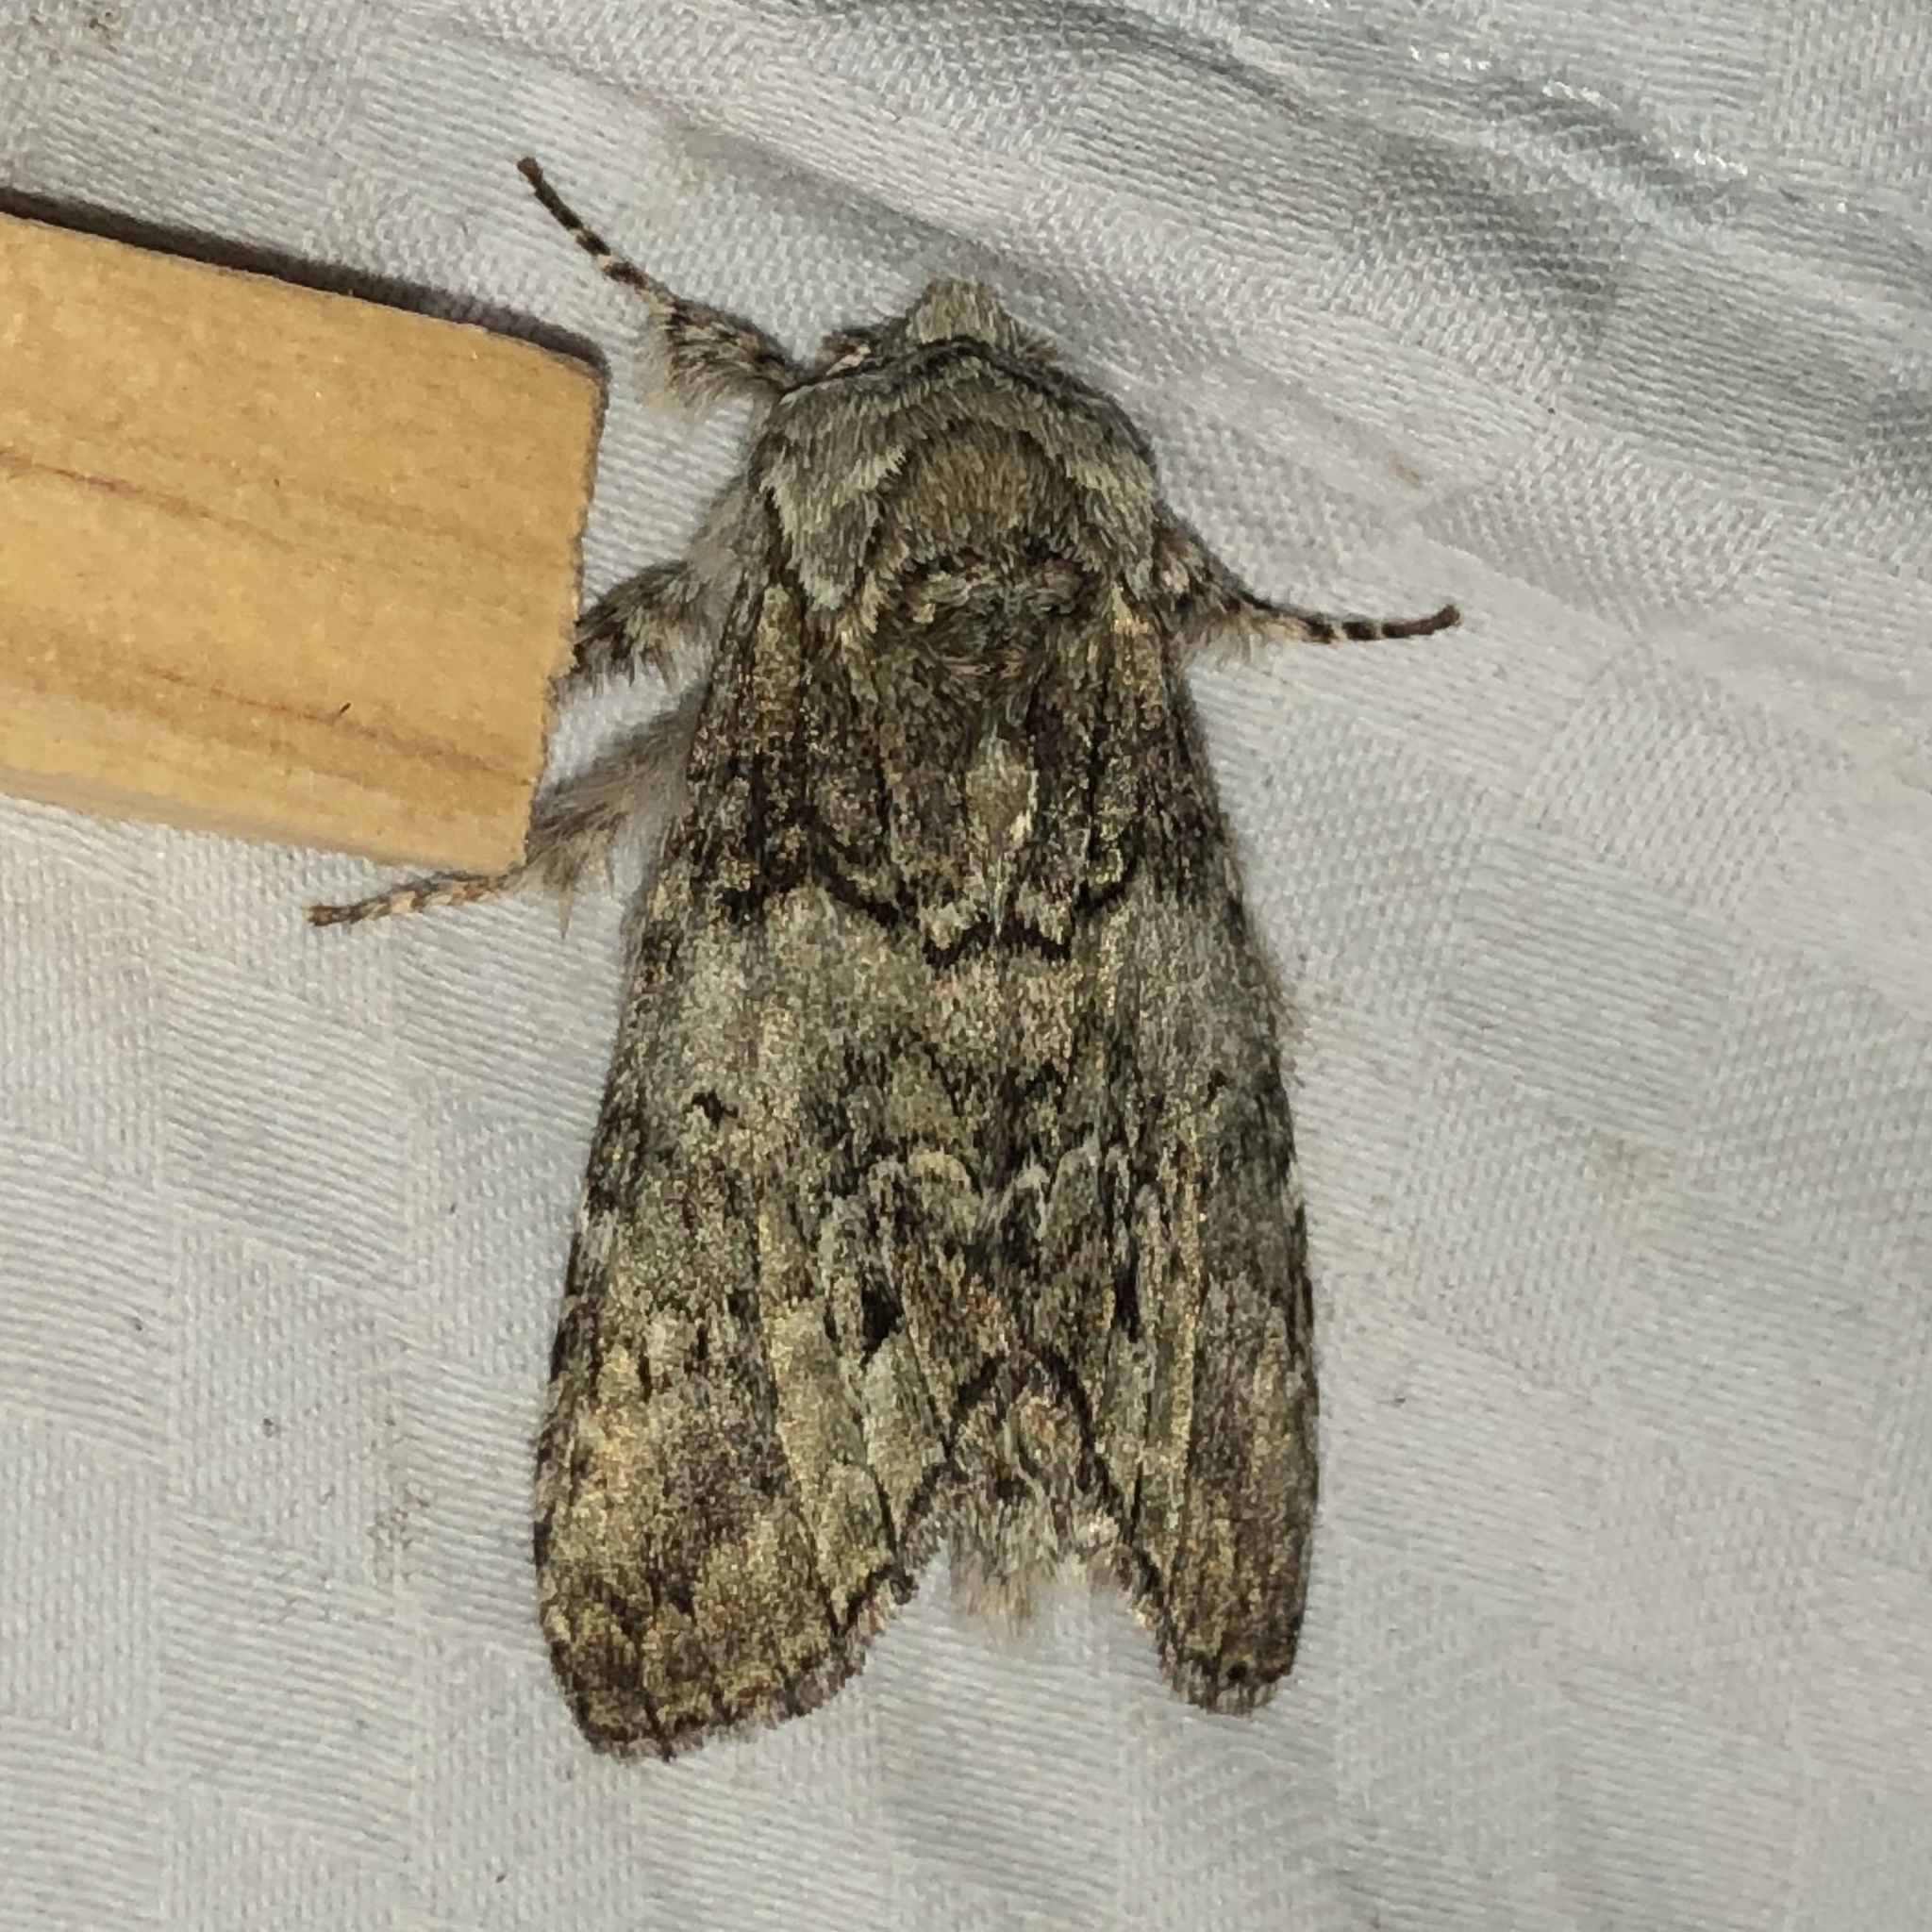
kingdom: Animalia
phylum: Arthropoda
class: Insecta
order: Lepidoptera
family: Notodontidae
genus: Macrurocampa
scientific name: Macrurocampa marthesia
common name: Mottled prominent
